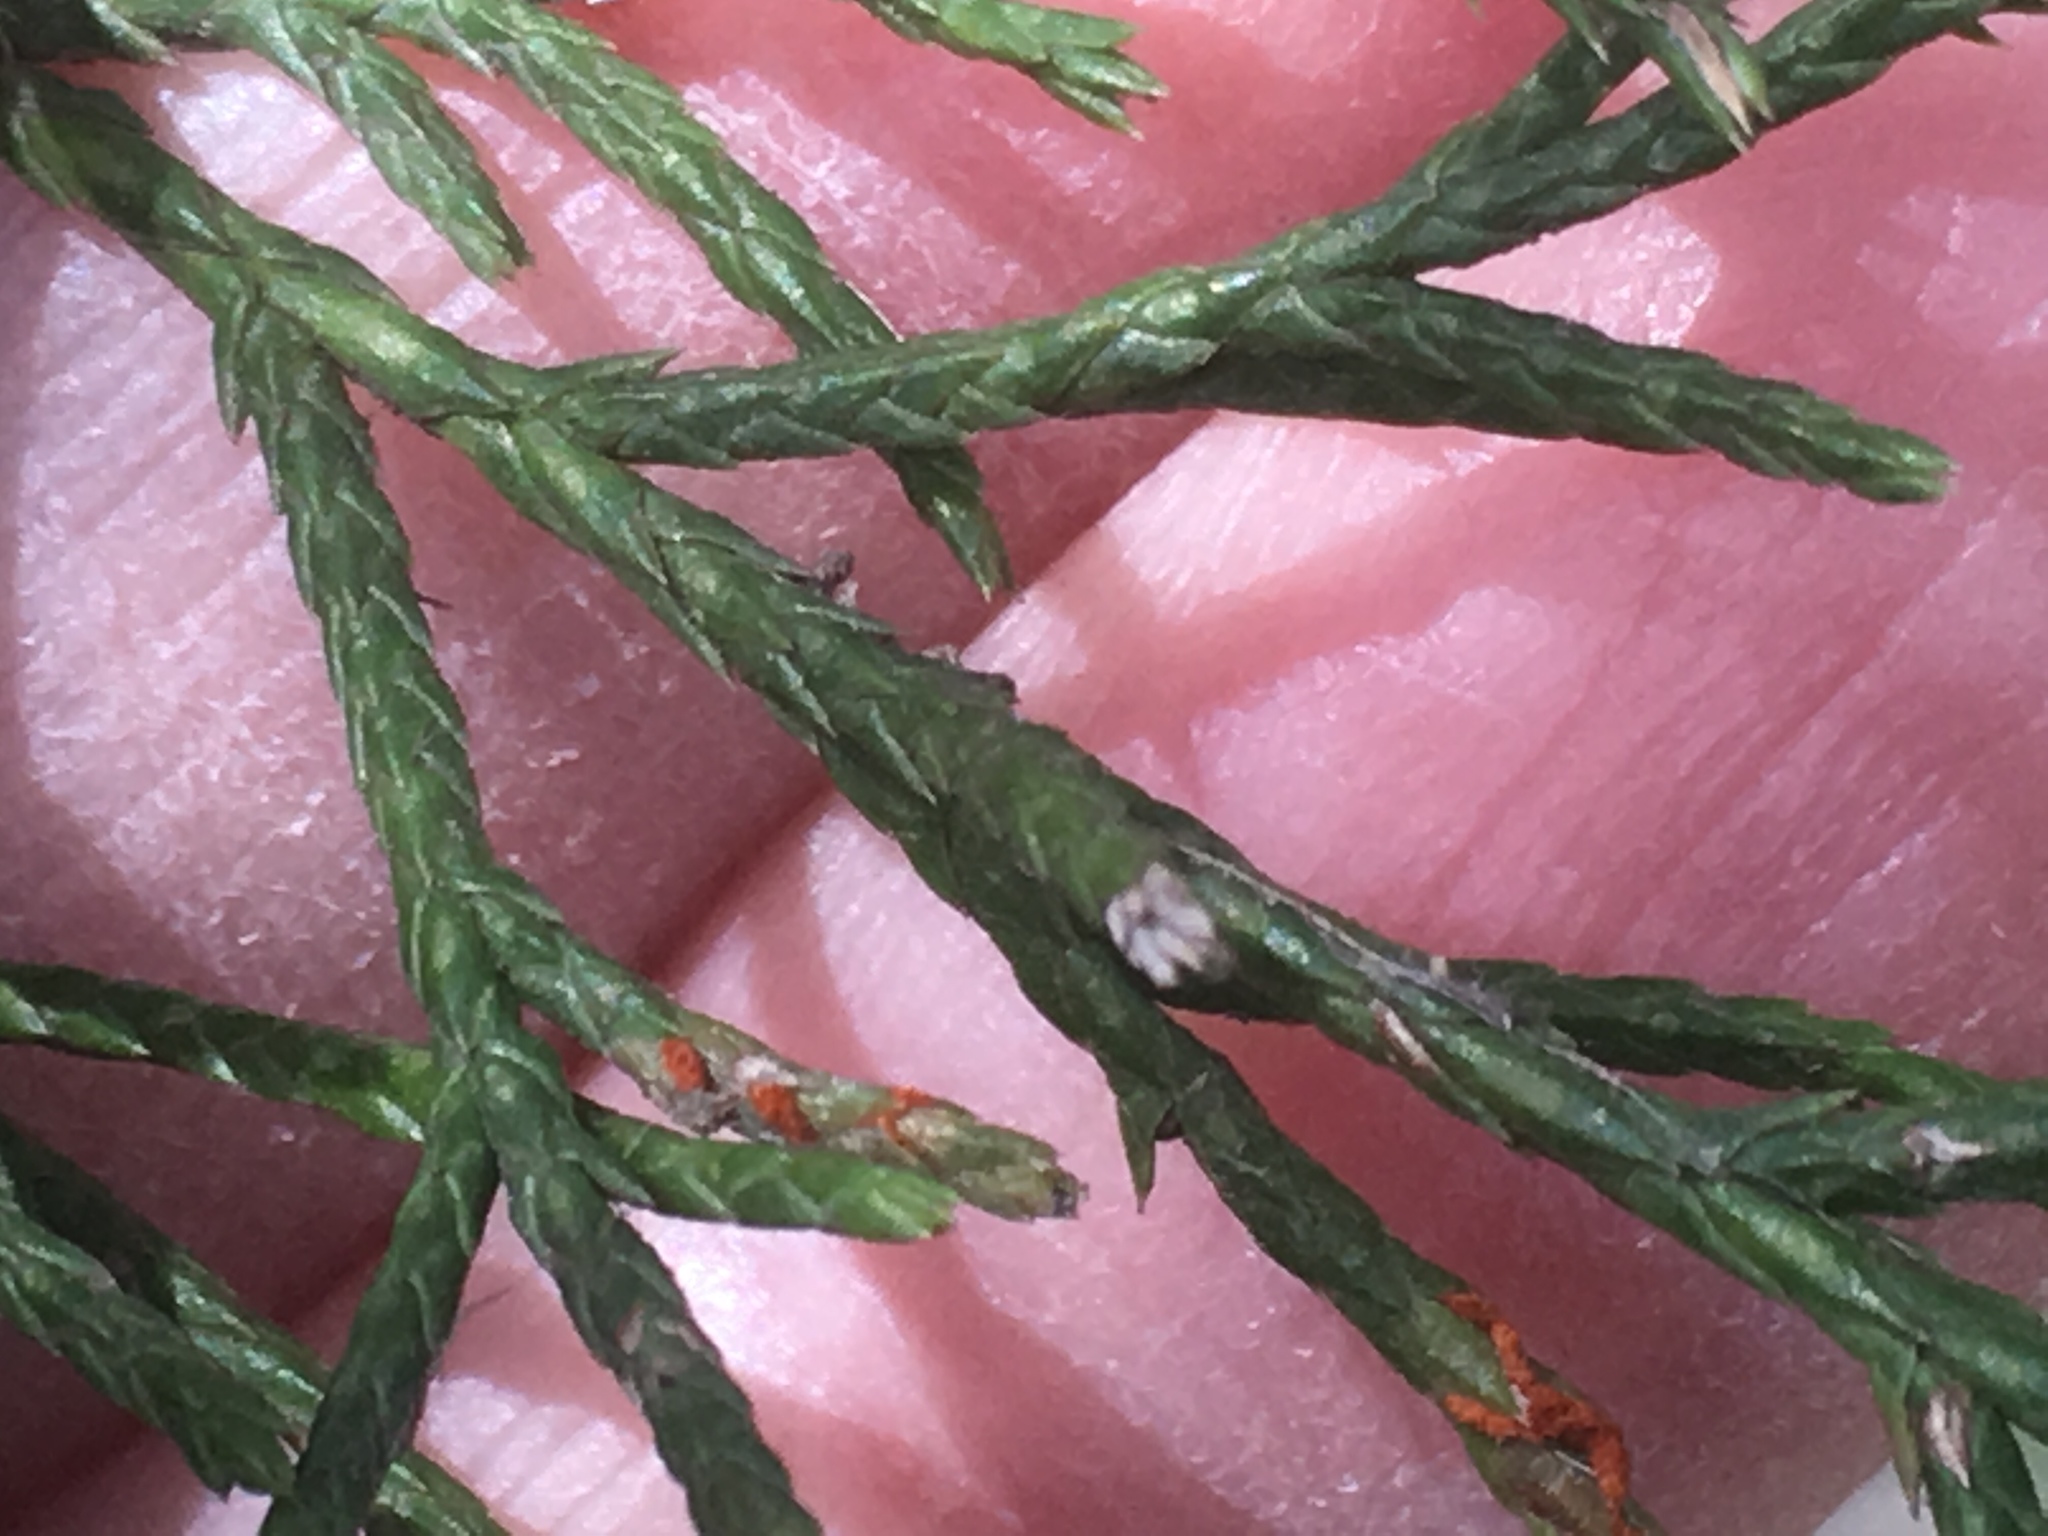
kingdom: Plantae
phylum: Tracheophyta
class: Pinopsida
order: Pinales
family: Cupressaceae
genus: Juniperus
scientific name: Juniperus virginiana
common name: Red juniper
